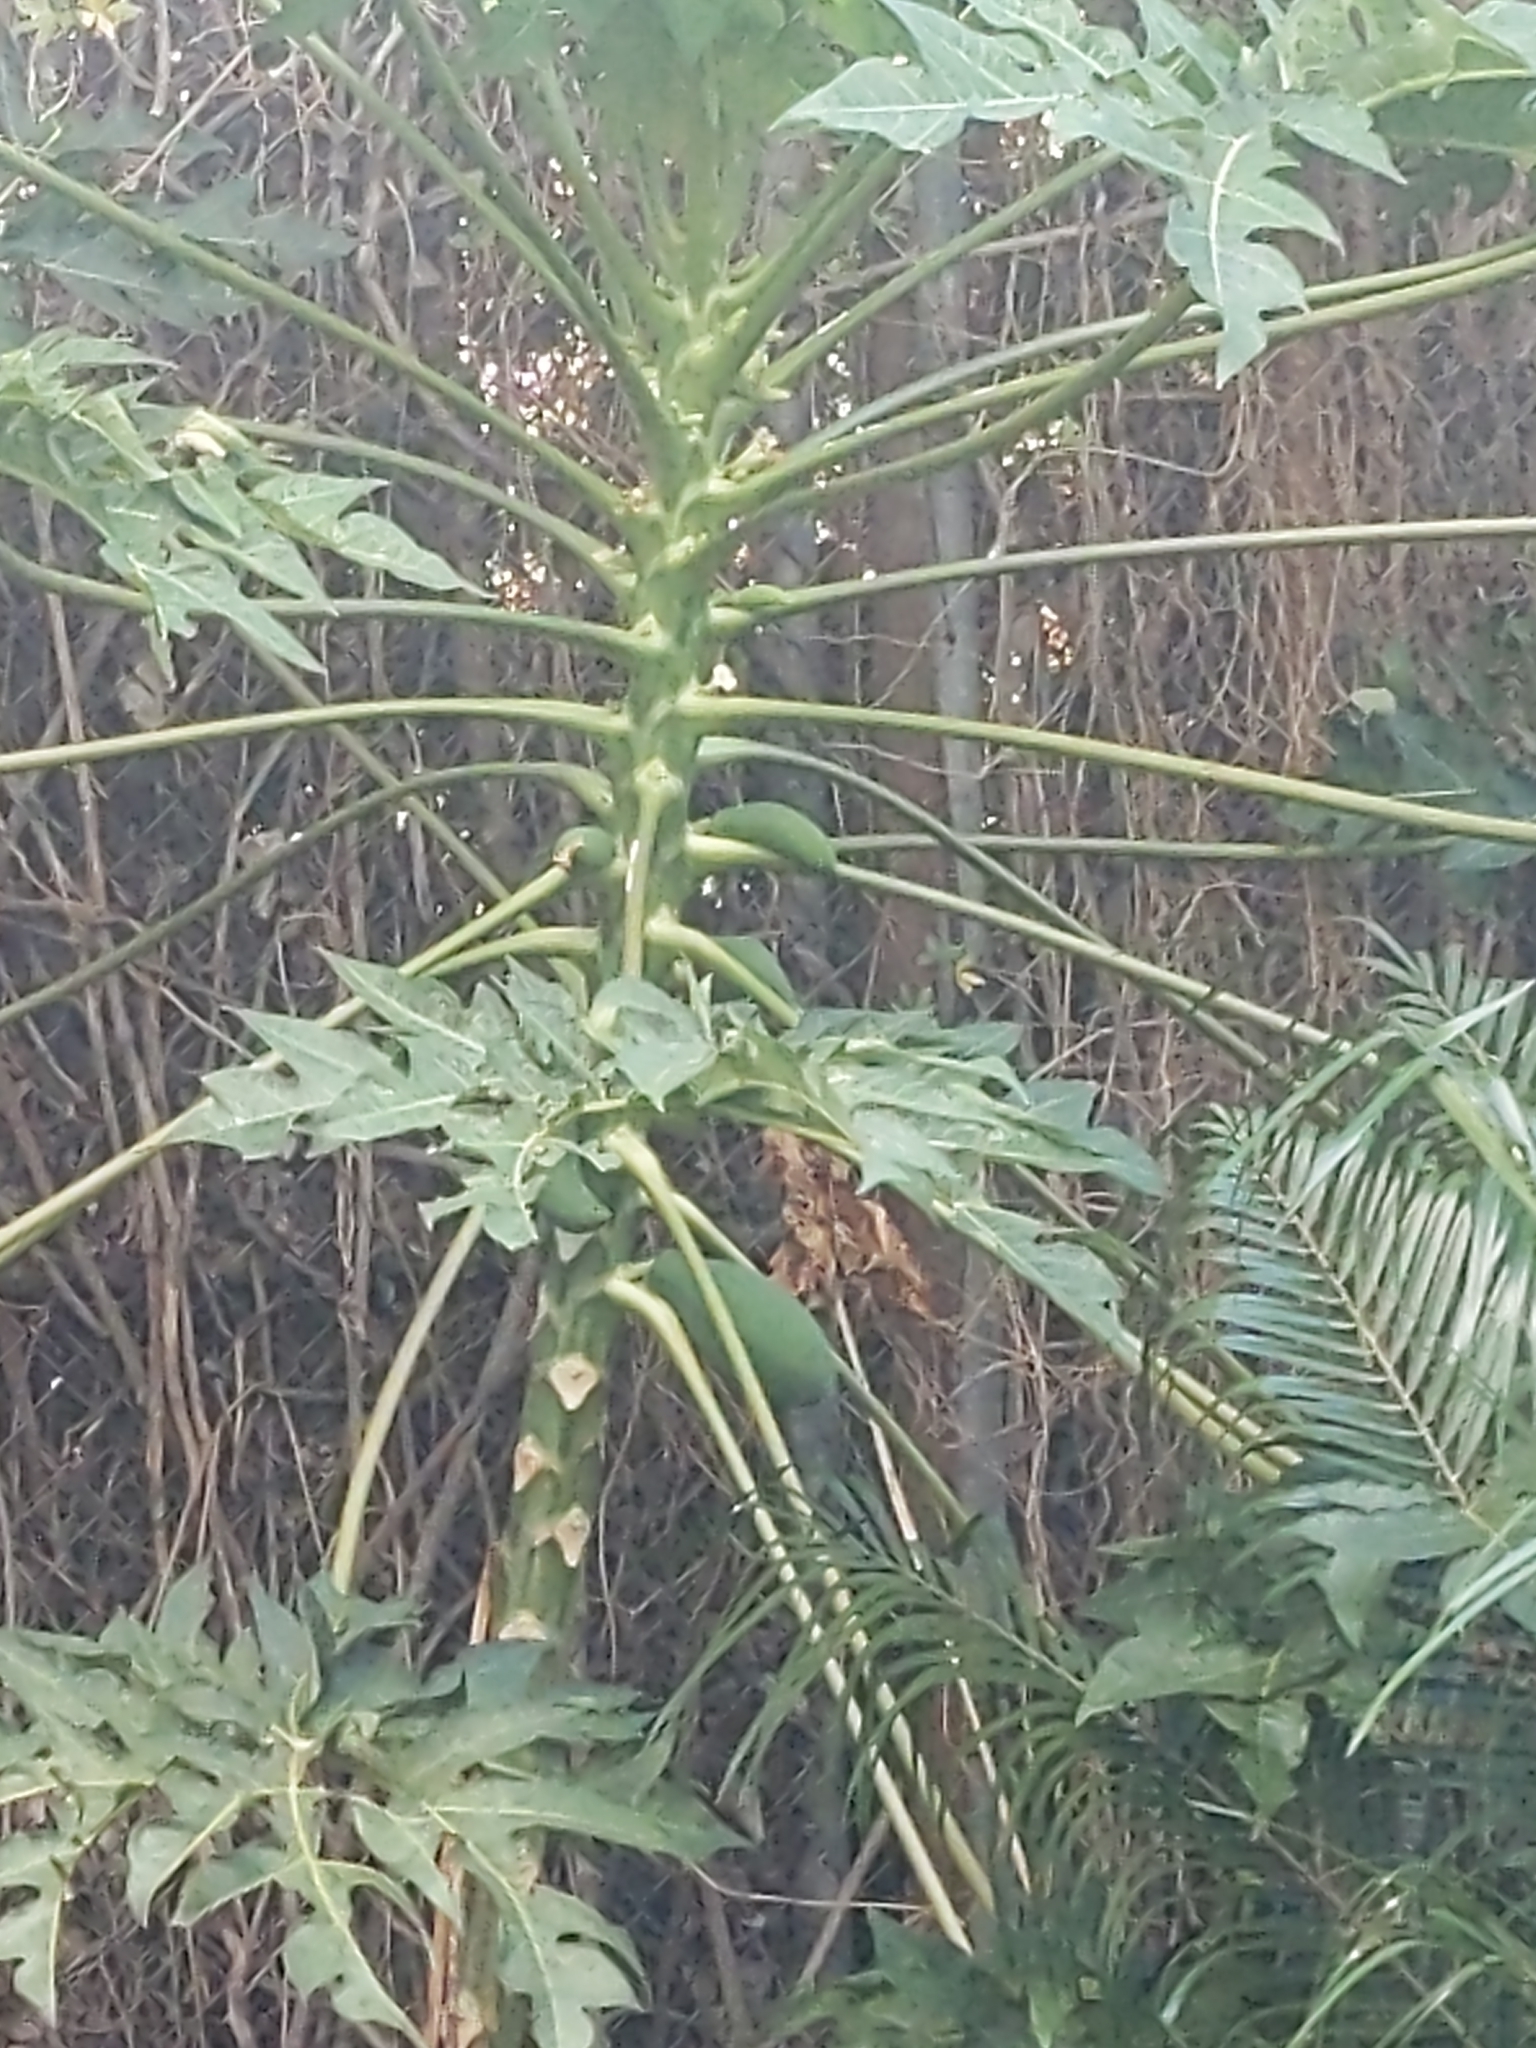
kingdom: Plantae
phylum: Tracheophyta
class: Magnoliopsida
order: Brassicales
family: Caricaceae
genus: Carica
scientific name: Carica papaya
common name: Papaya
